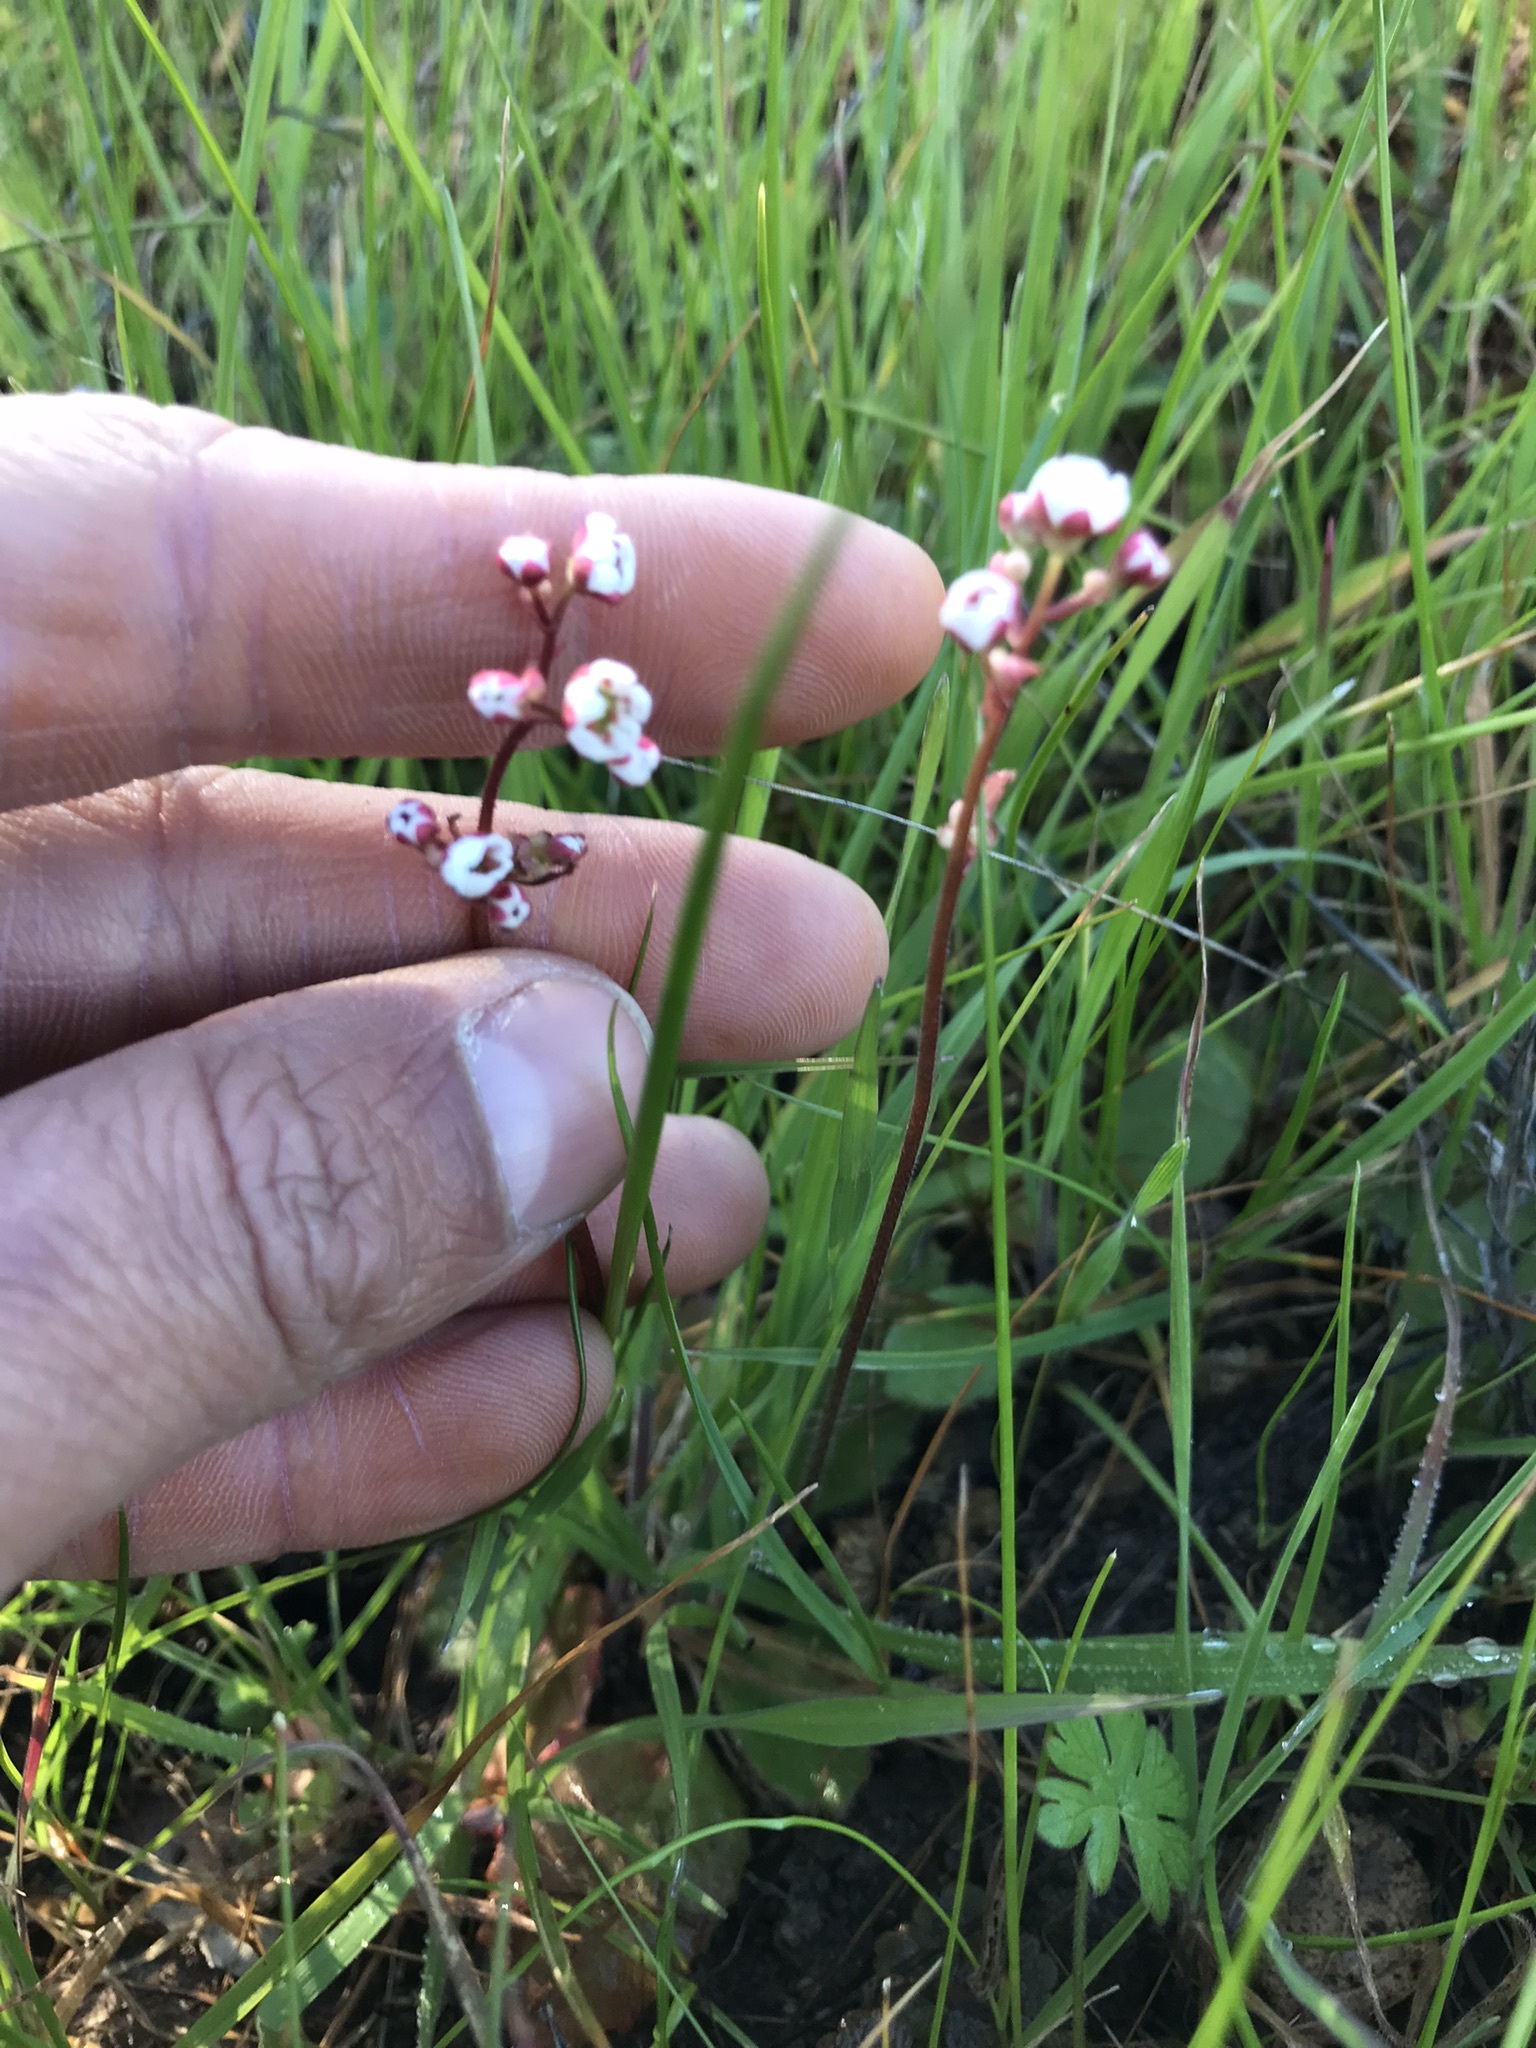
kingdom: Plantae
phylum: Tracheophyta
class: Magnoliopsida
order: Saxifragales
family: Saxifragaceae
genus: Micranthes
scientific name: Micranthes californica
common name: California saxifrage
